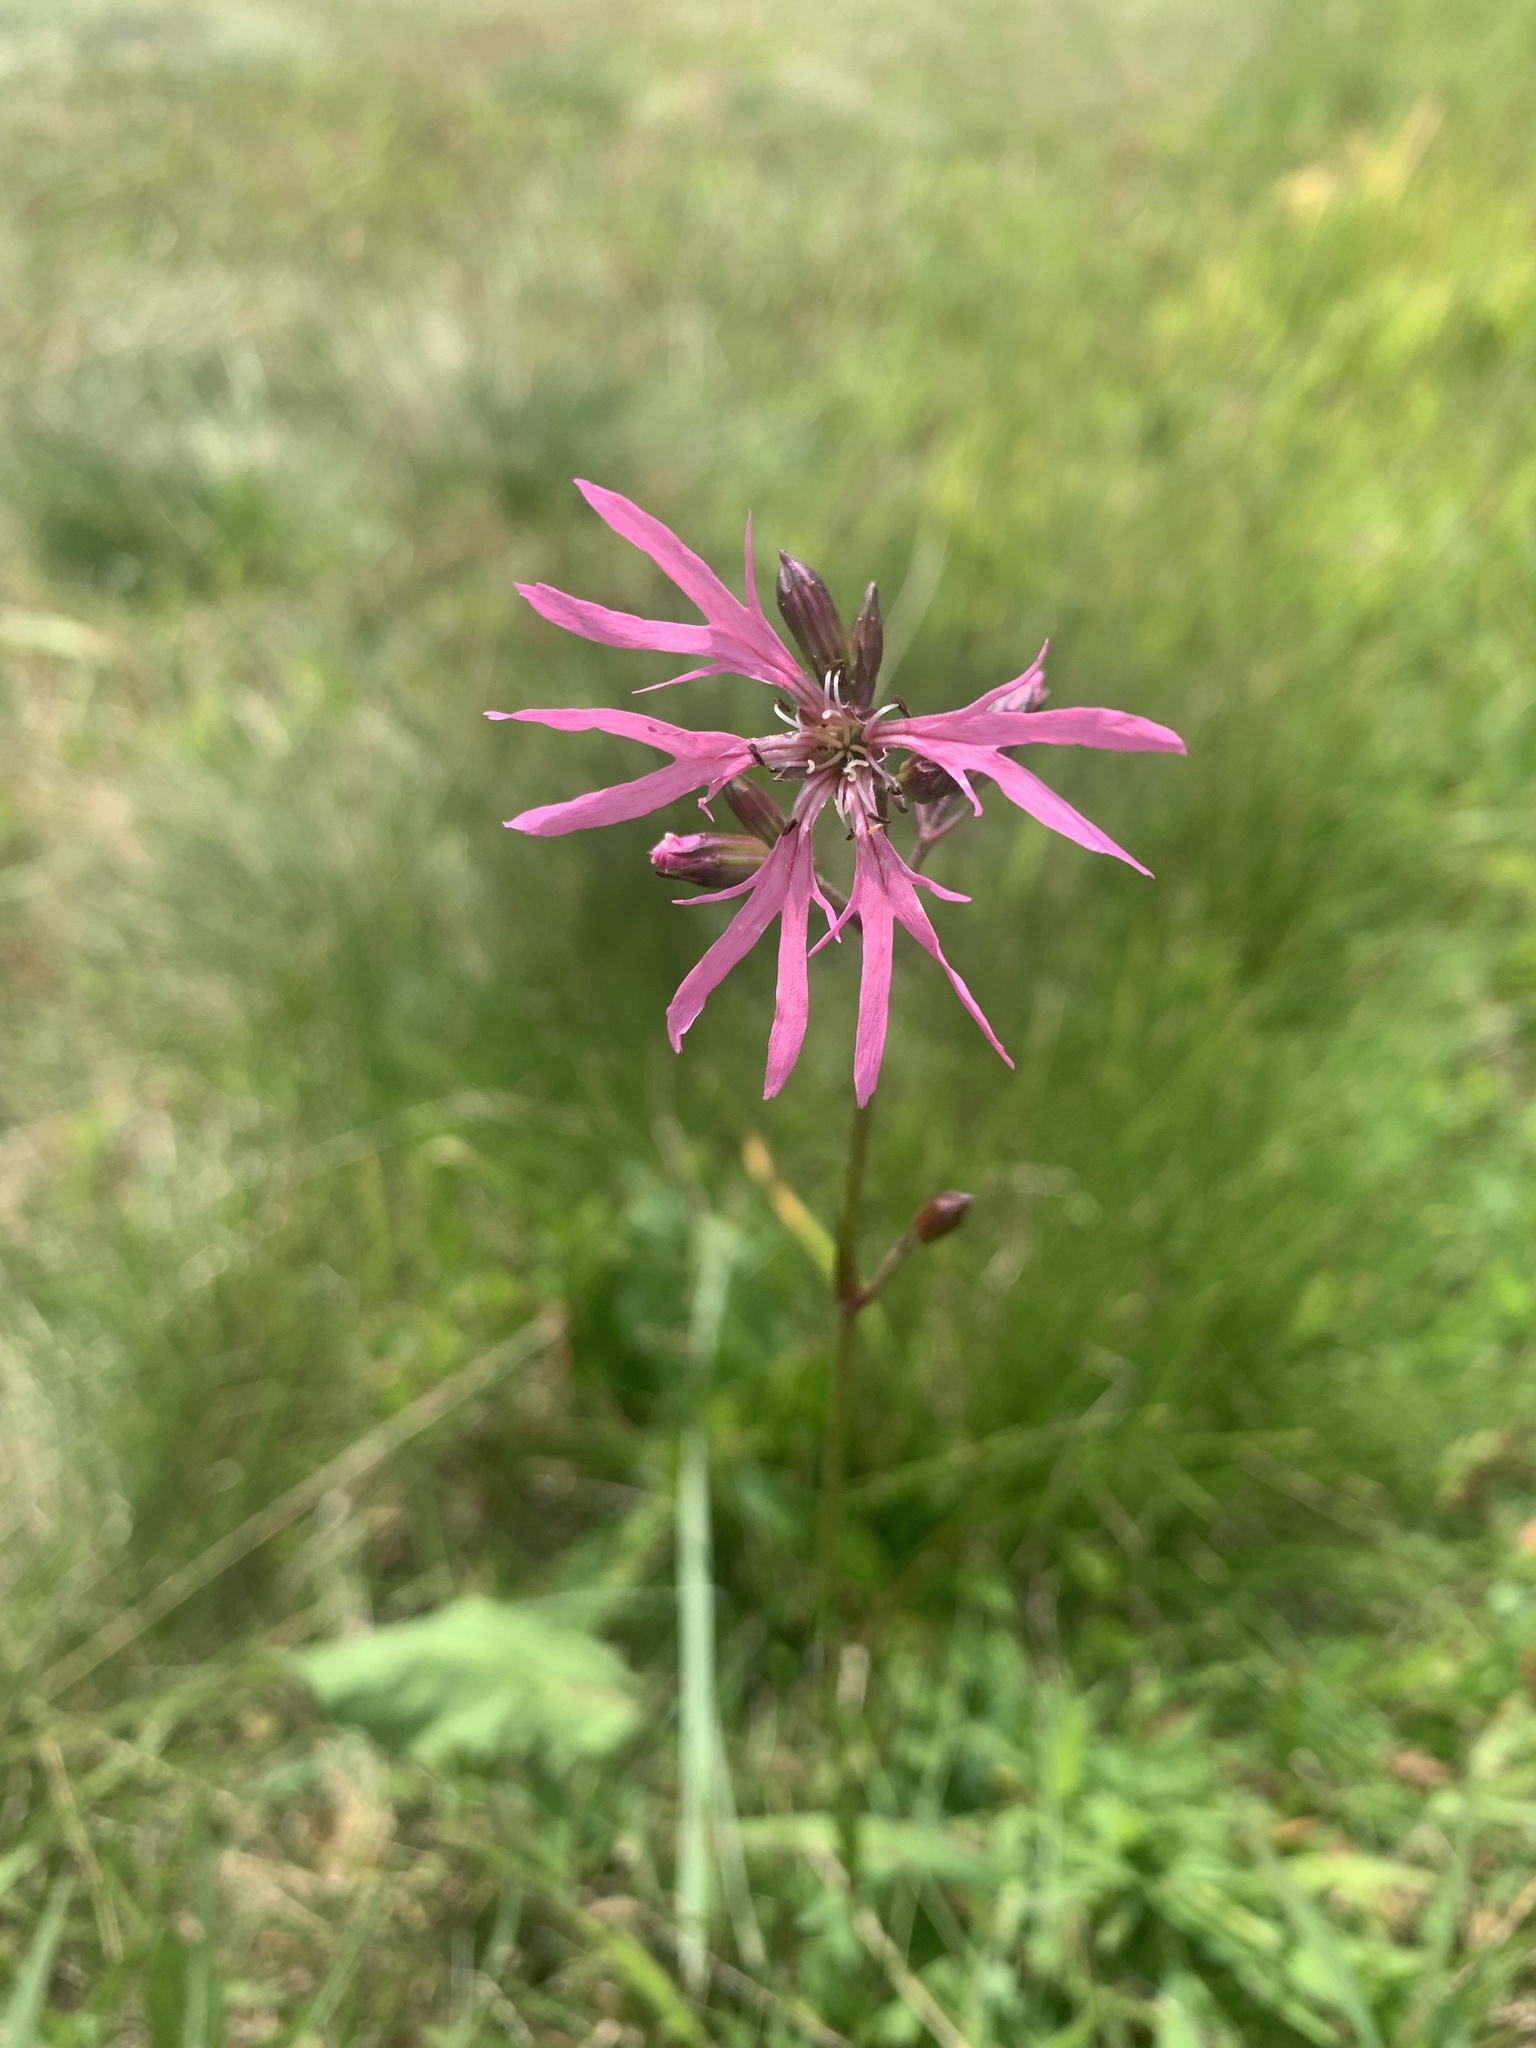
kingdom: Plantae
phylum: Tracheophyta
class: Magnoliopsida
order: Caryophyllales
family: Caryophyllaceae
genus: Silene
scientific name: Silene flos-cuculi
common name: Ragged-robin
